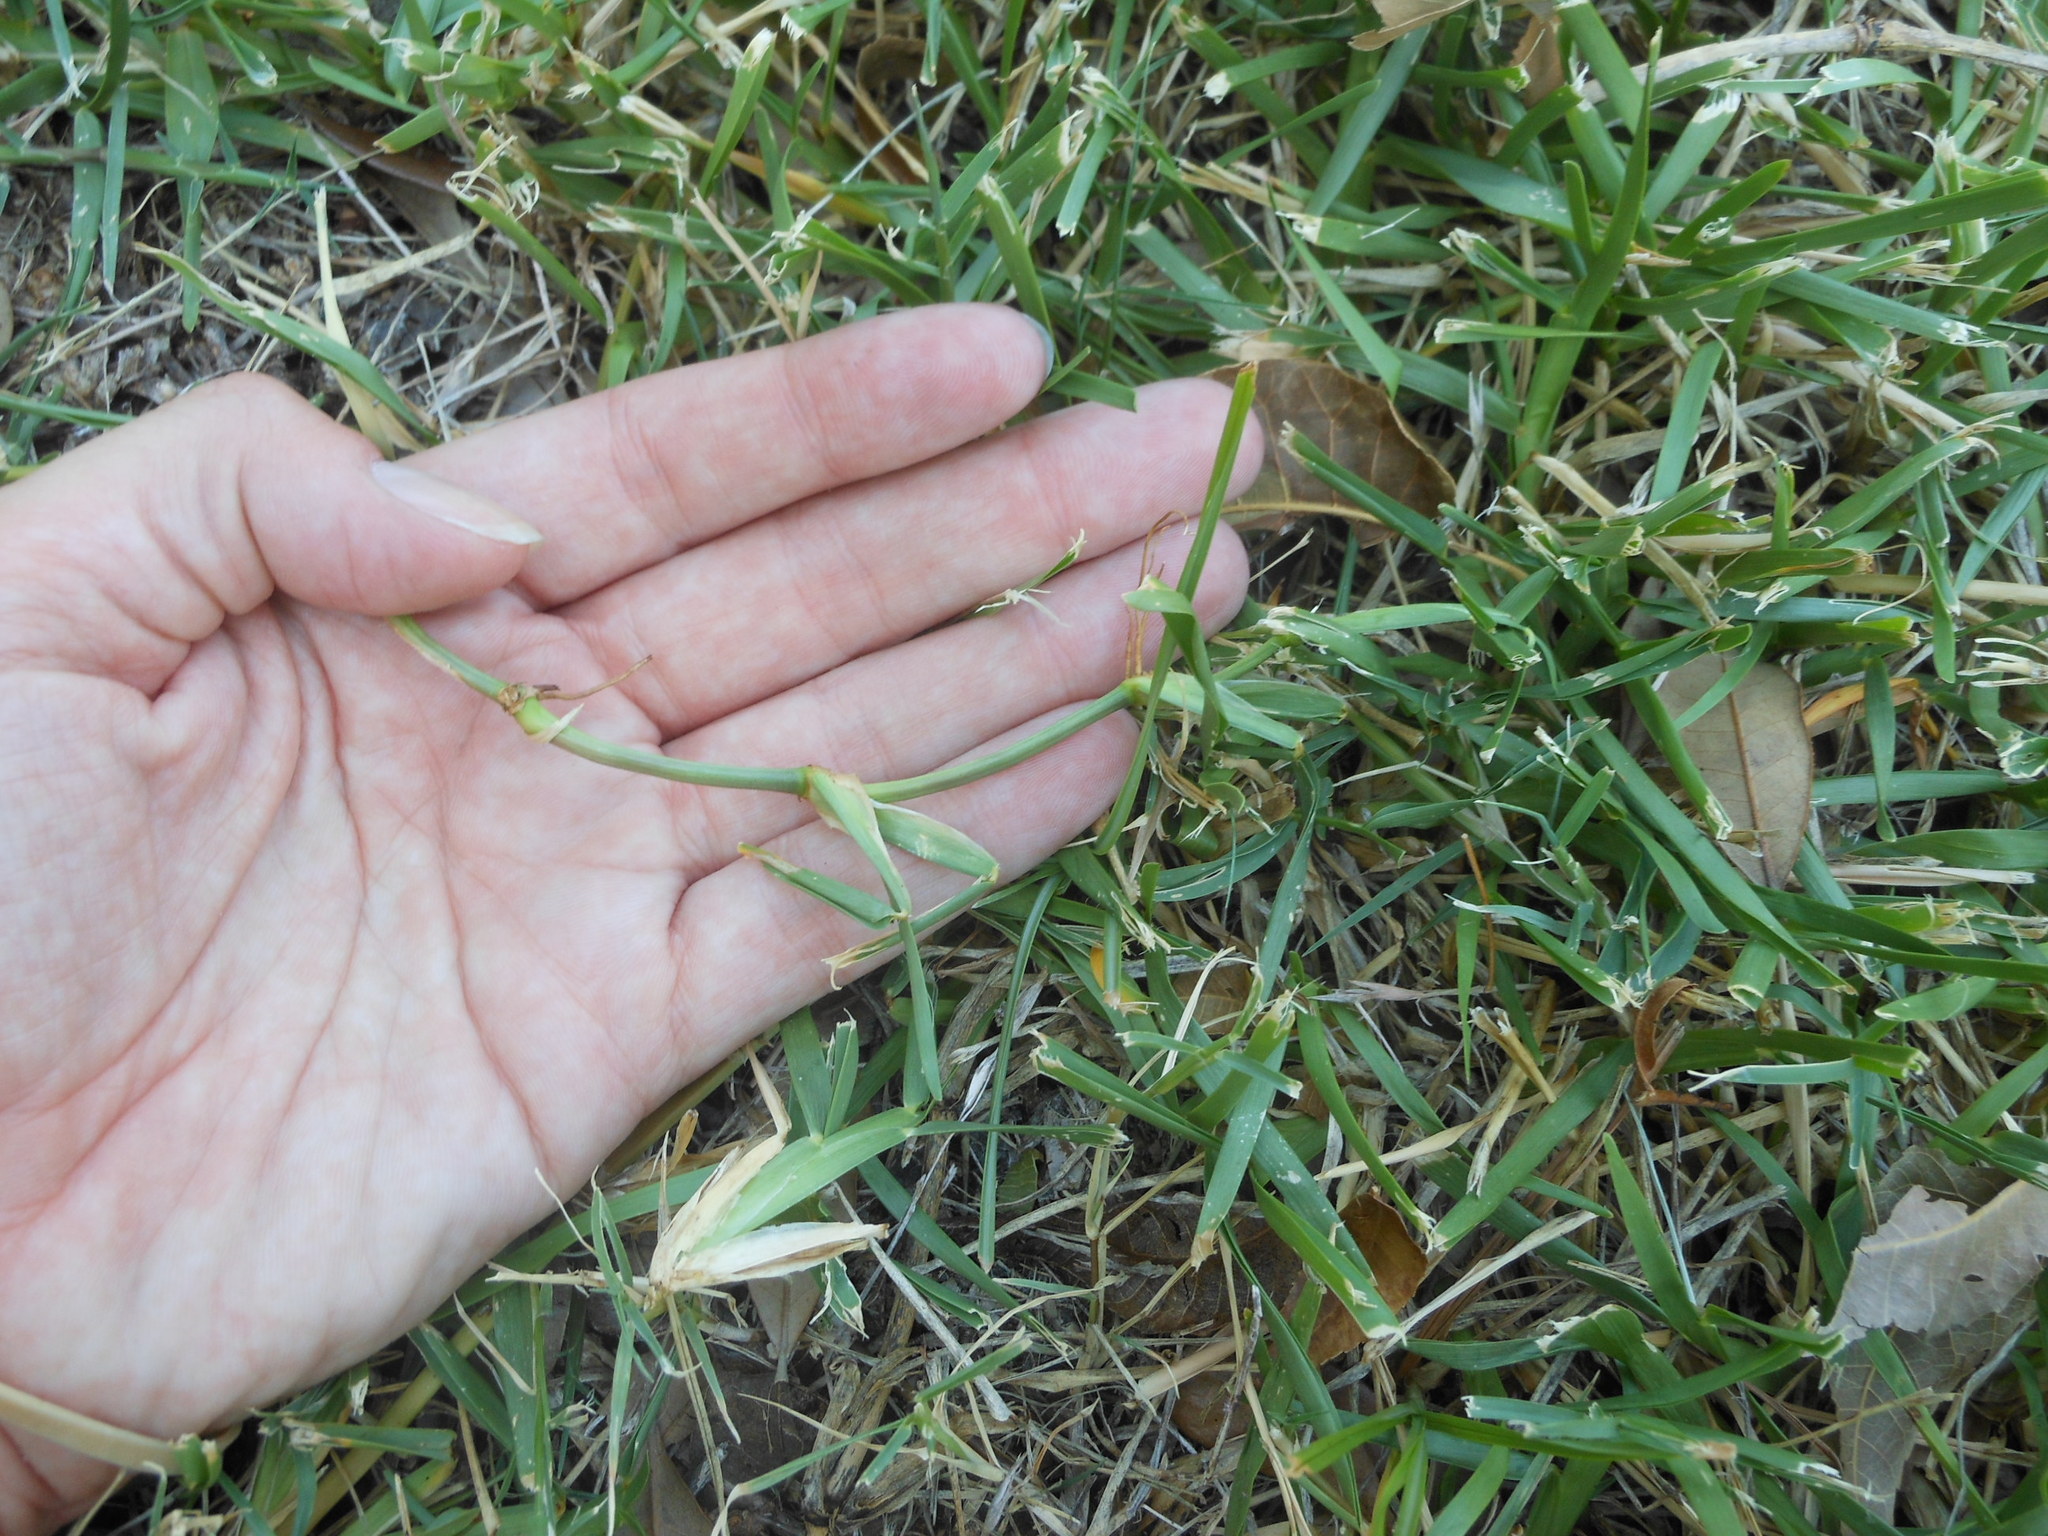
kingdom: Plantae
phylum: Tracheophyta
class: Liliopsida
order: Poales
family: Poaceae
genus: Stenotaphrum
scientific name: Stenotaphrum secundatum
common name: St. augustine grass
